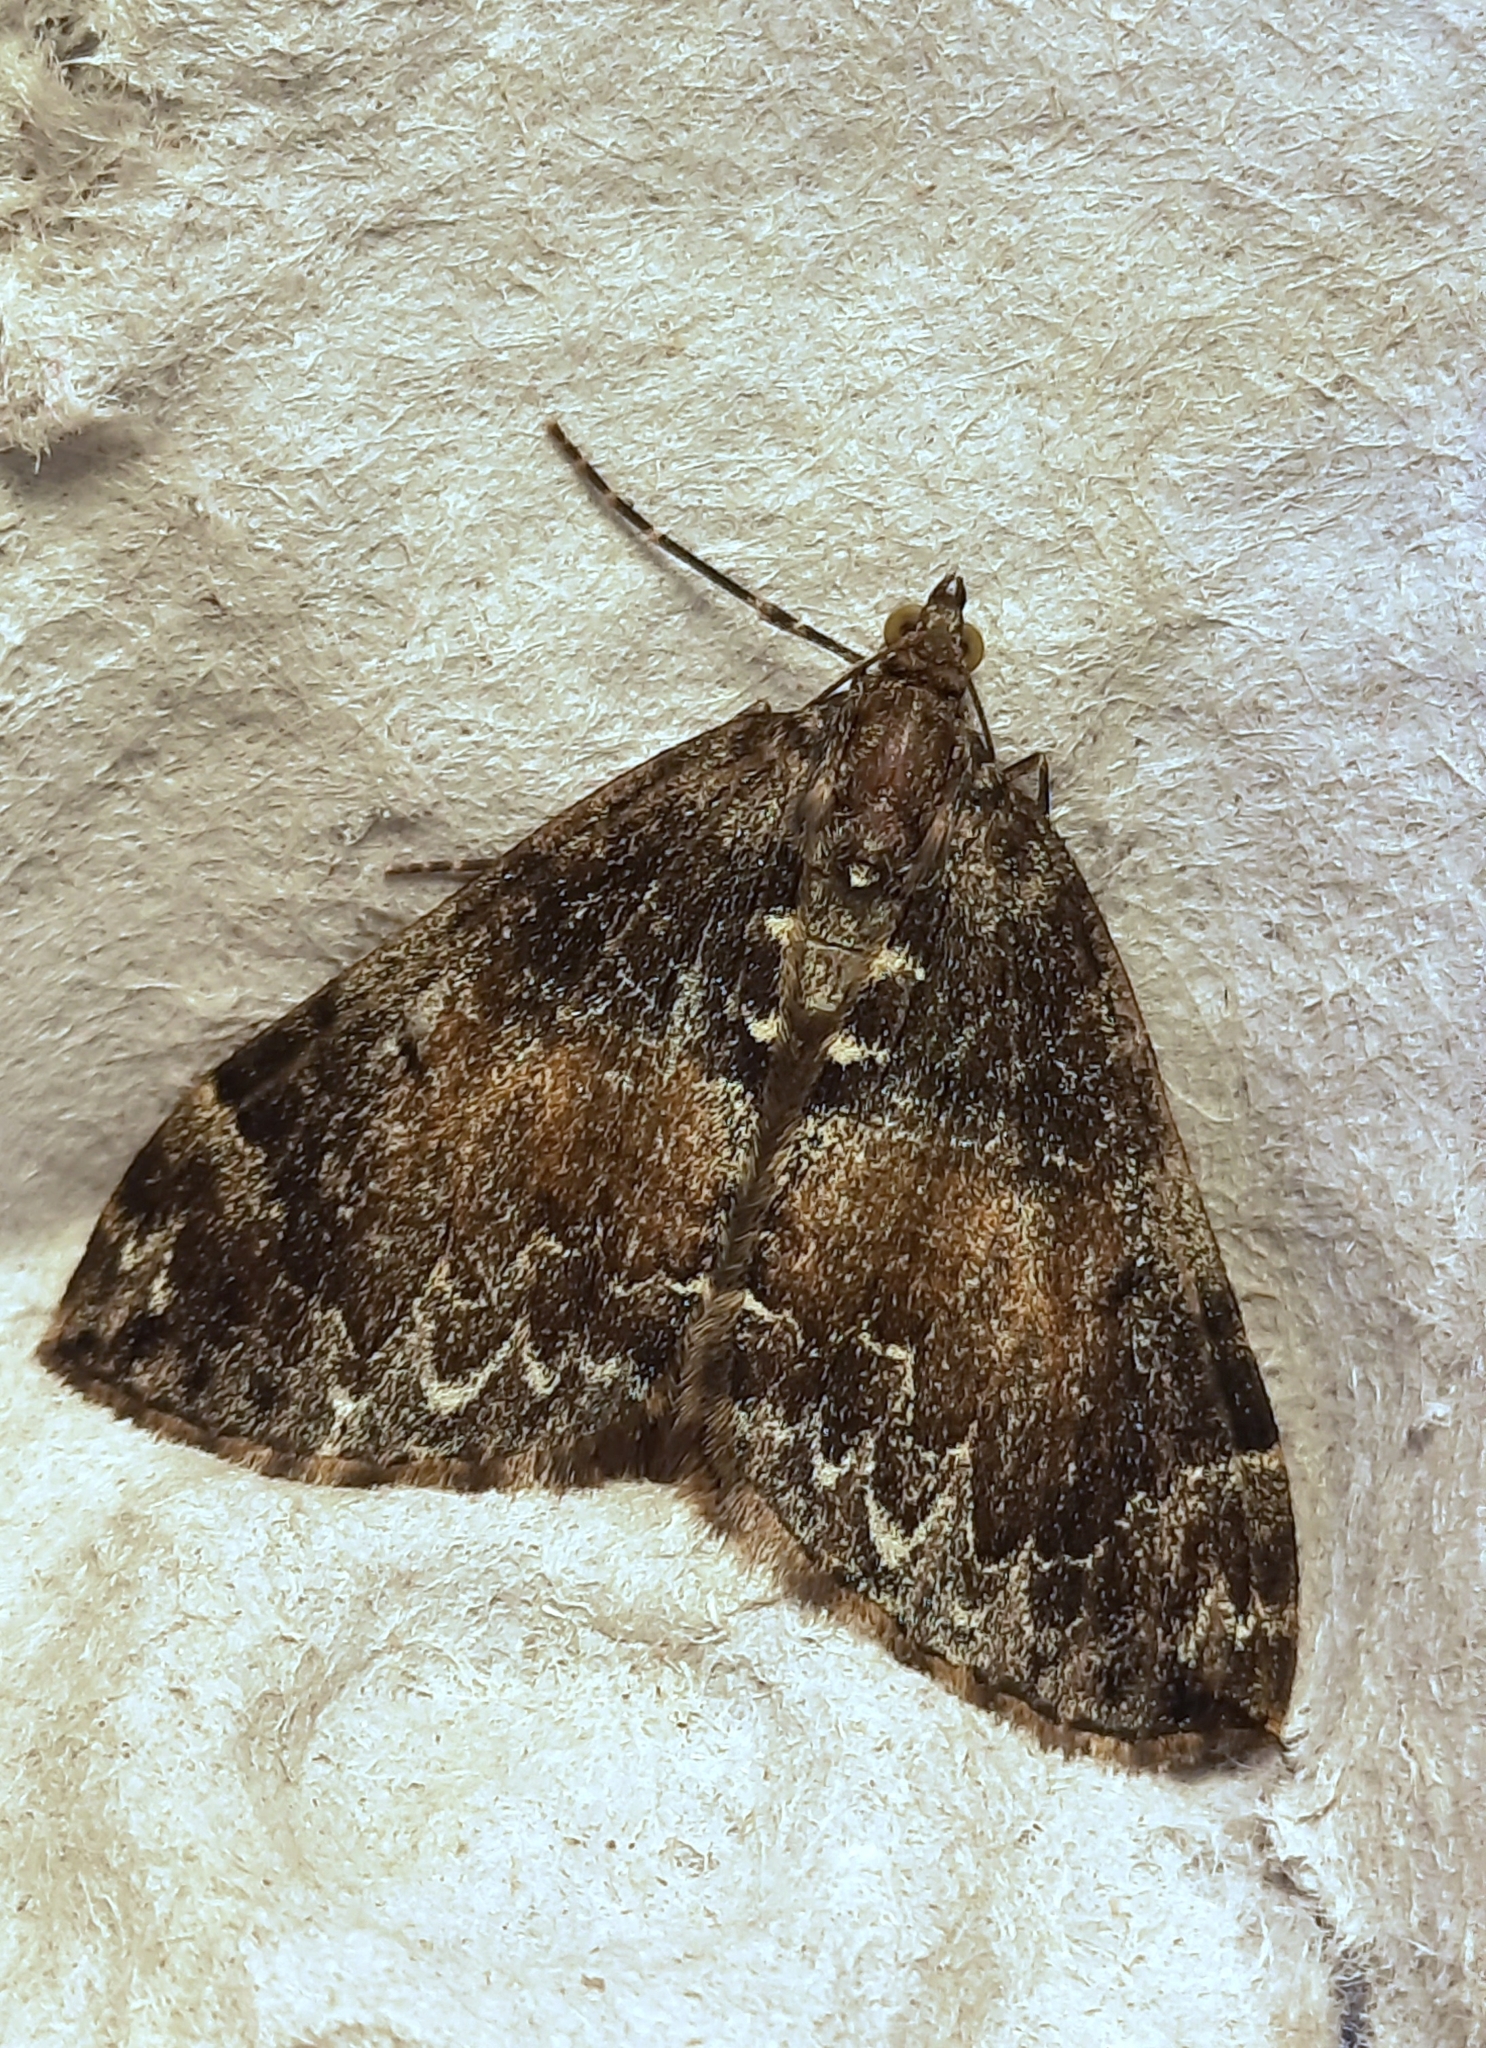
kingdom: Animalia
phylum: Arthropoda
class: Insecta
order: Lepidoptera
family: Geometridae
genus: Dysstroma
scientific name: Dysstroma truncata
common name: Common marbled carpet
